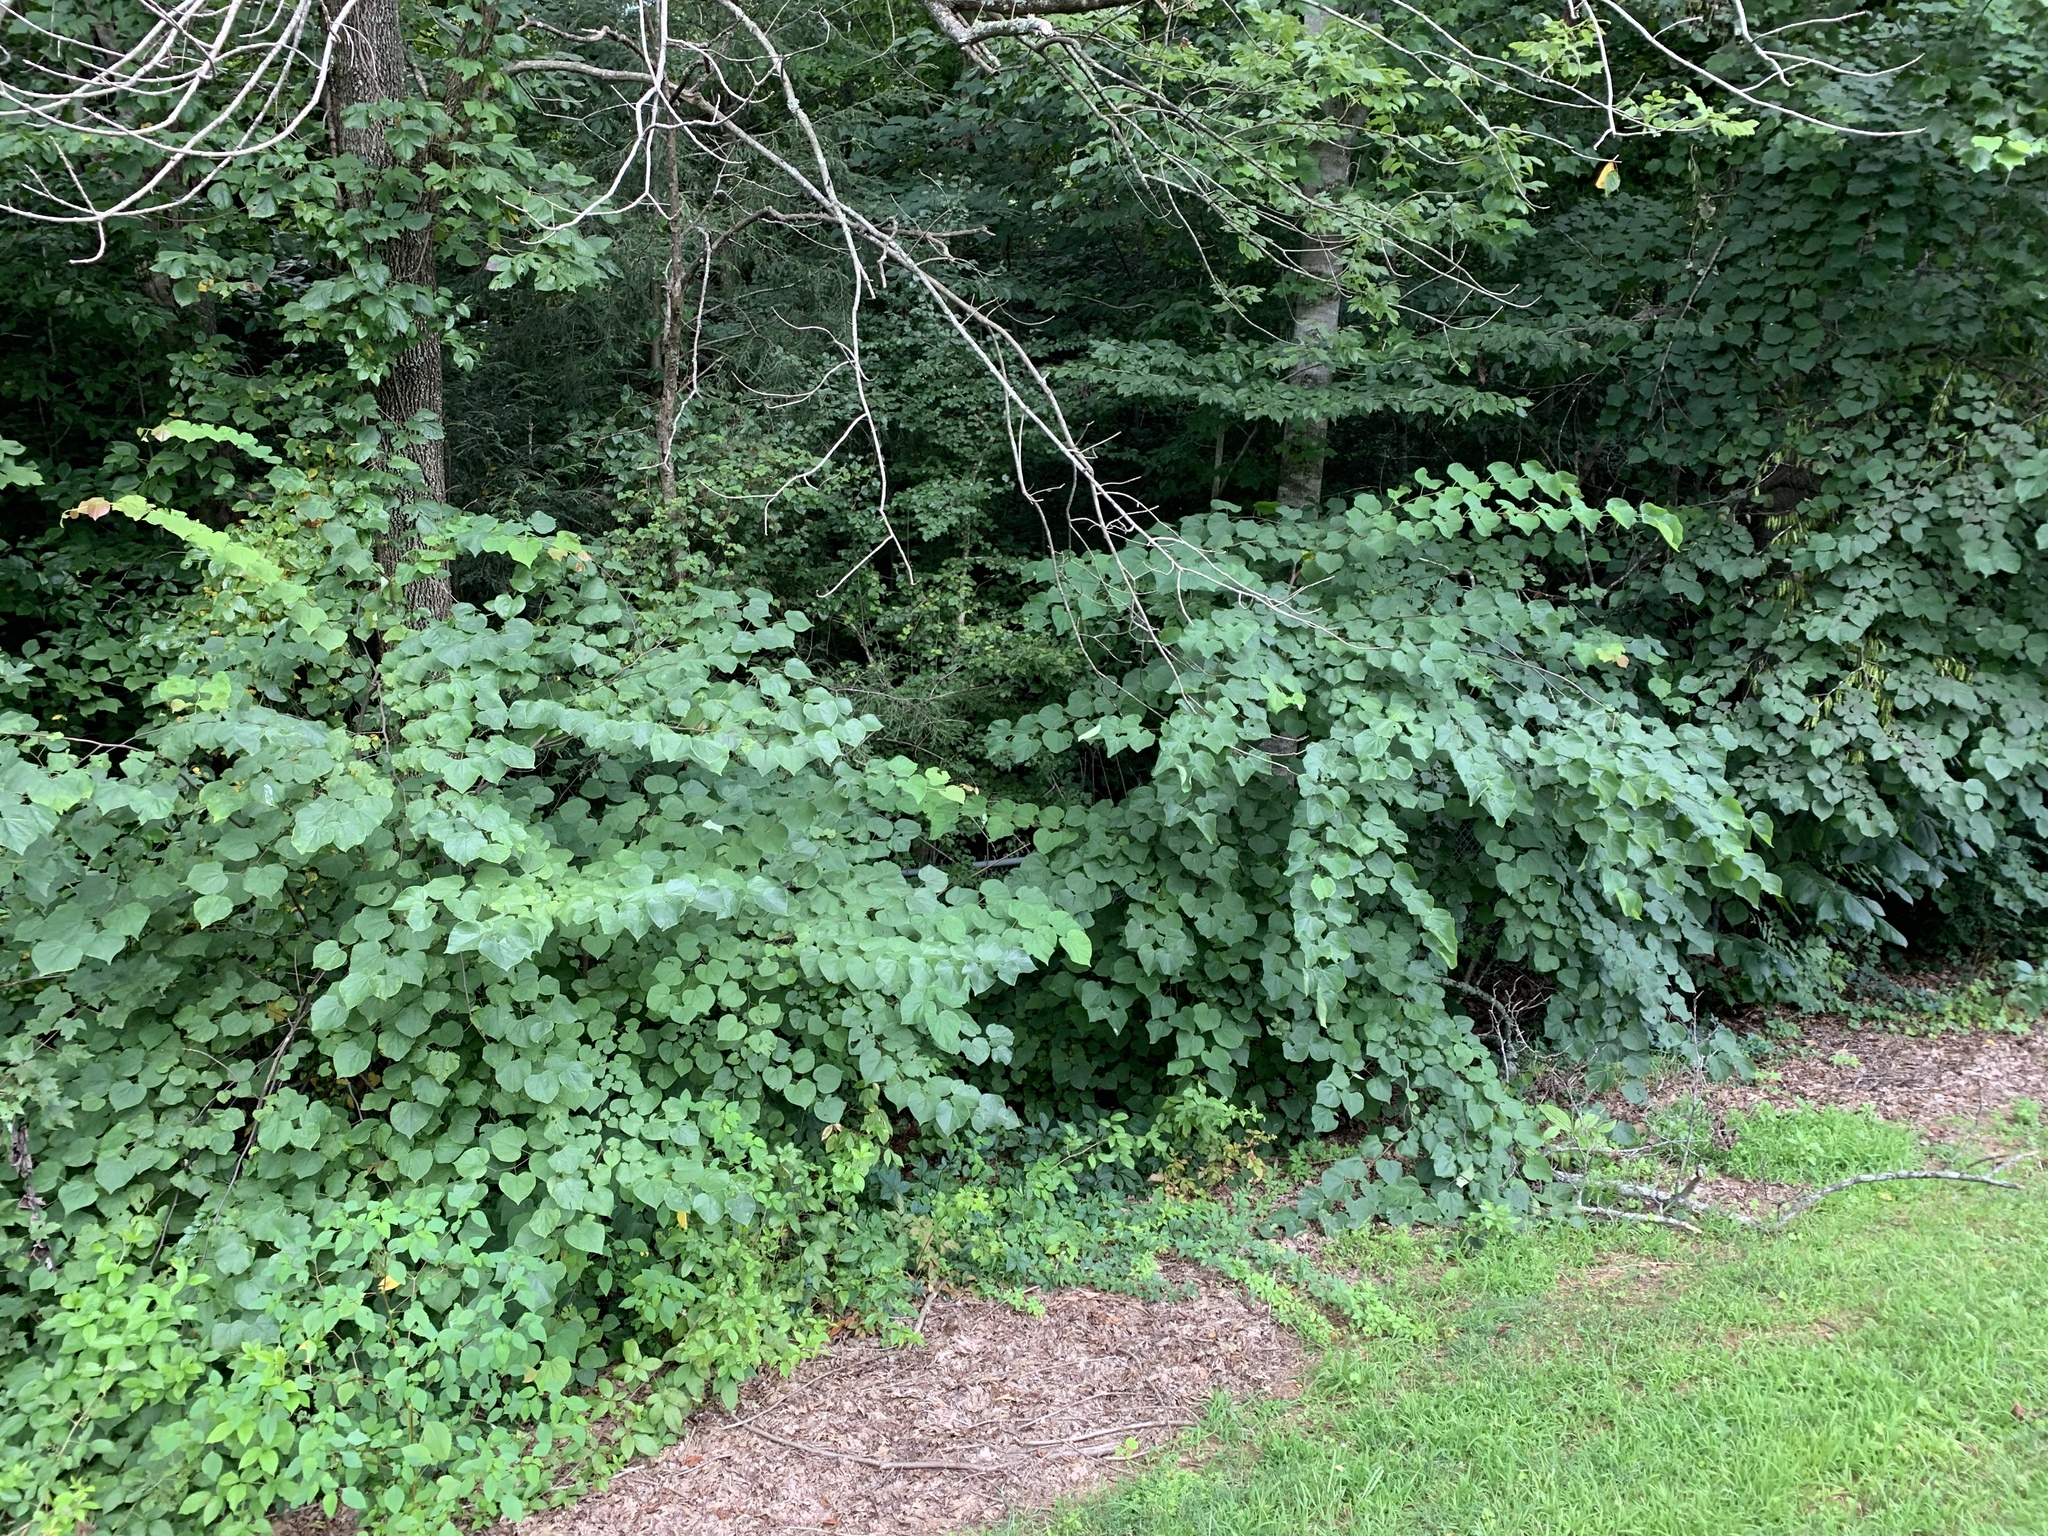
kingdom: Plantae
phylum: Tracheophyta
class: Magnoliopsida
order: Fabales
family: Fabaceae
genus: Cercis
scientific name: Cercis canadensis
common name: Eastern redbud
